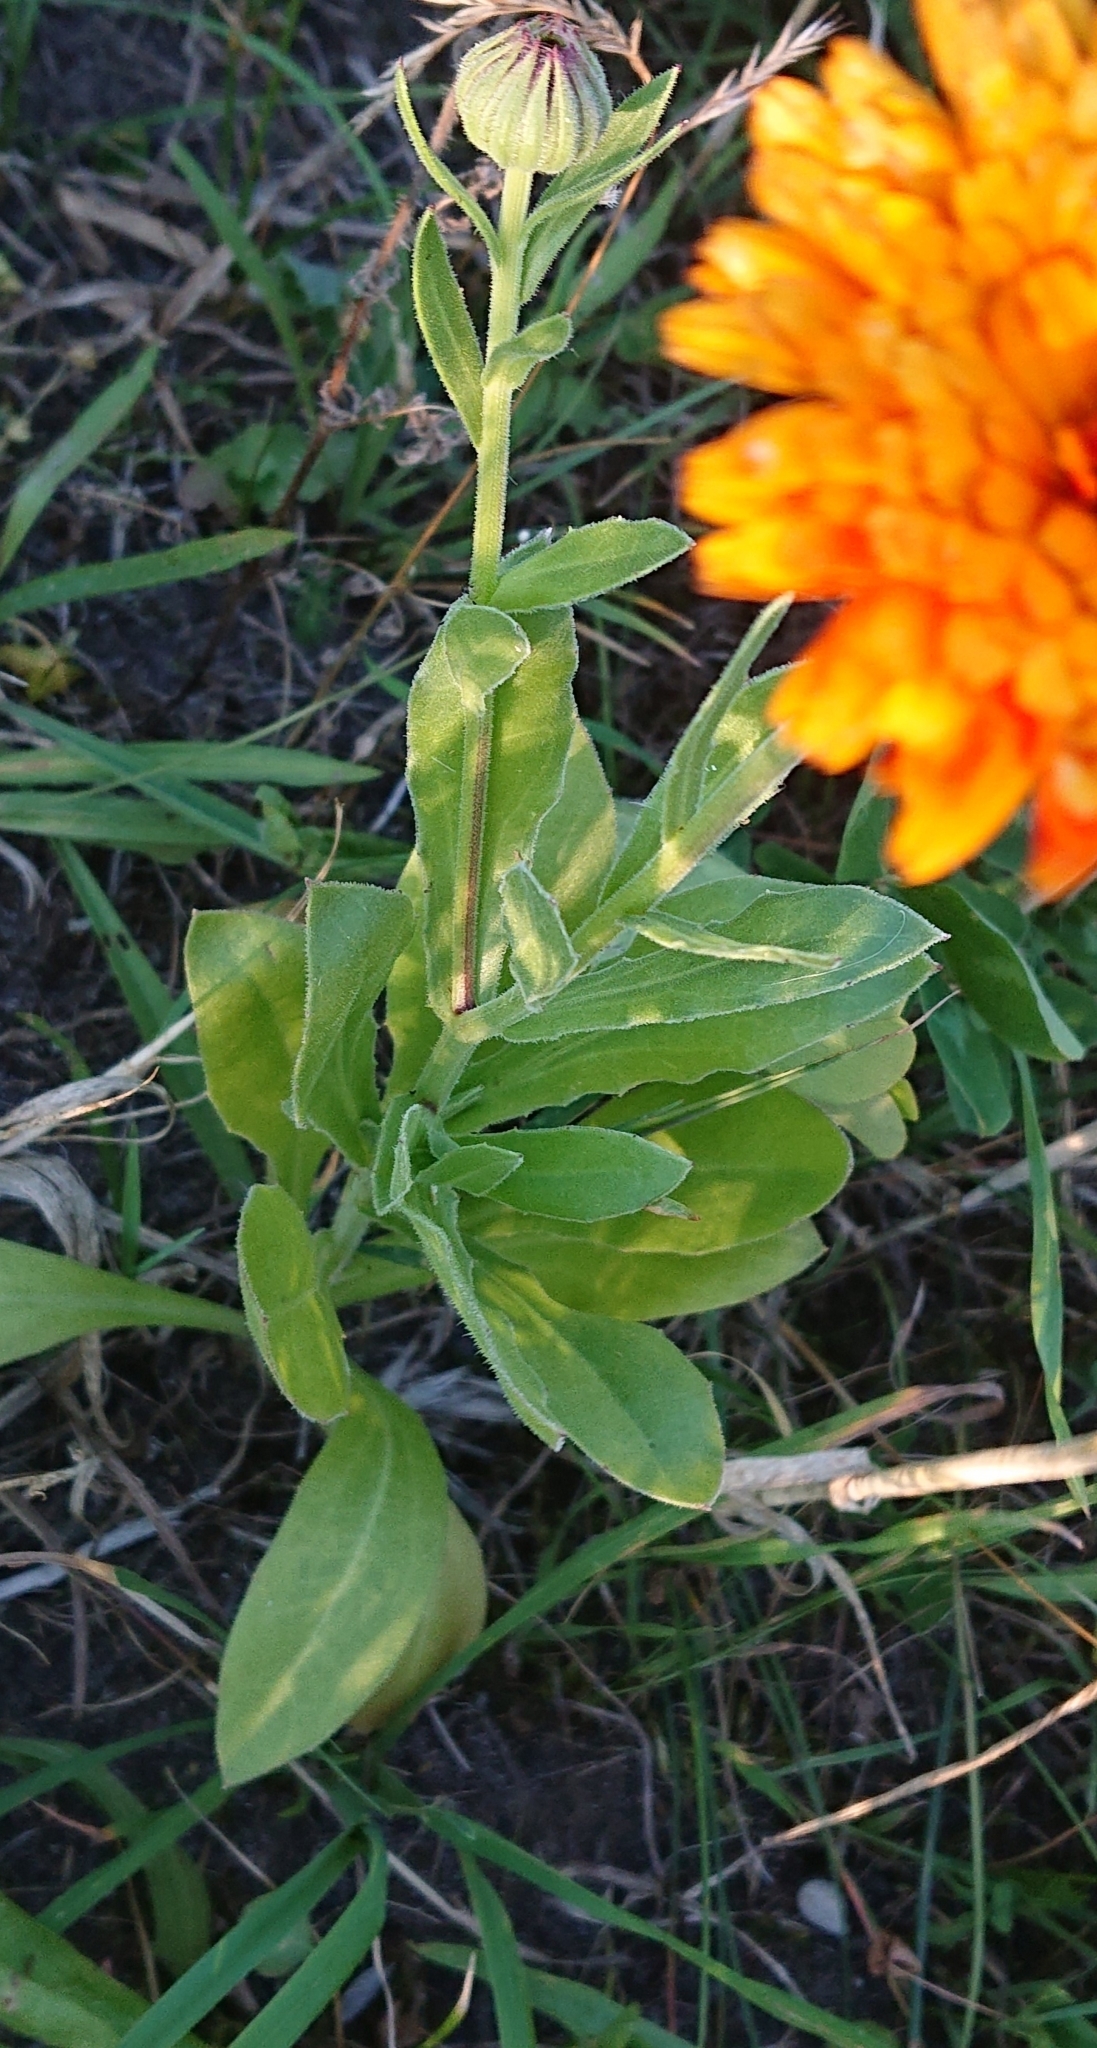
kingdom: Plantae
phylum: Tracheophyta
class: Magnoliopsida
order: Asterales
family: Asteraceae
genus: Calendula
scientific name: Calendula officinalis
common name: Pot marigold
